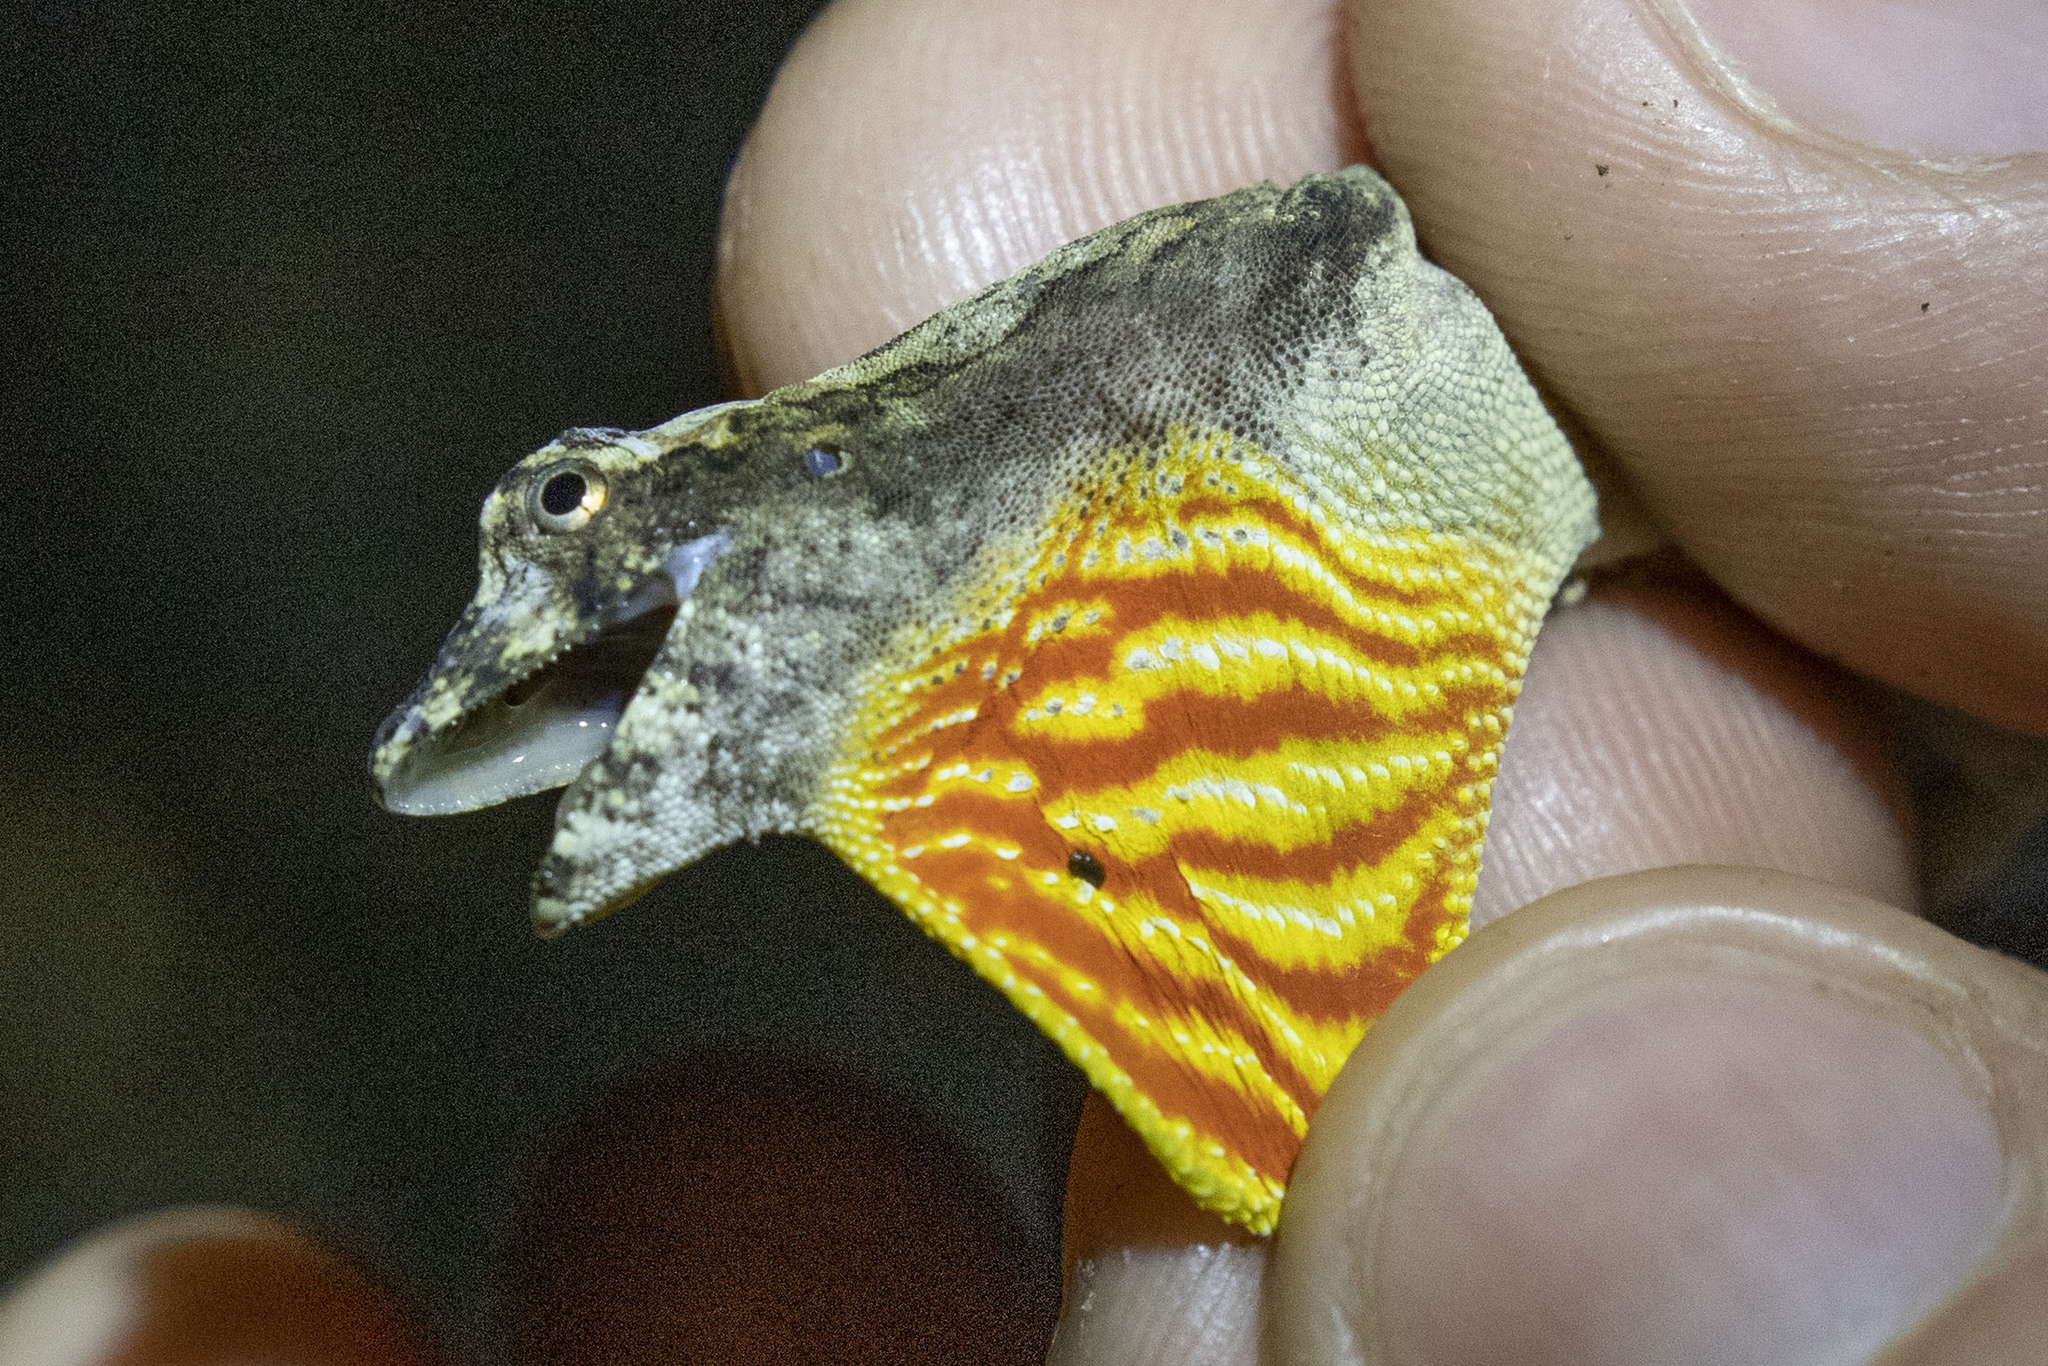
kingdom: Animalia
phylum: Chordata
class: Squamata
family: Dactyloidae
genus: Anolis
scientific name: Anolis ortonii
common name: Bark anole
